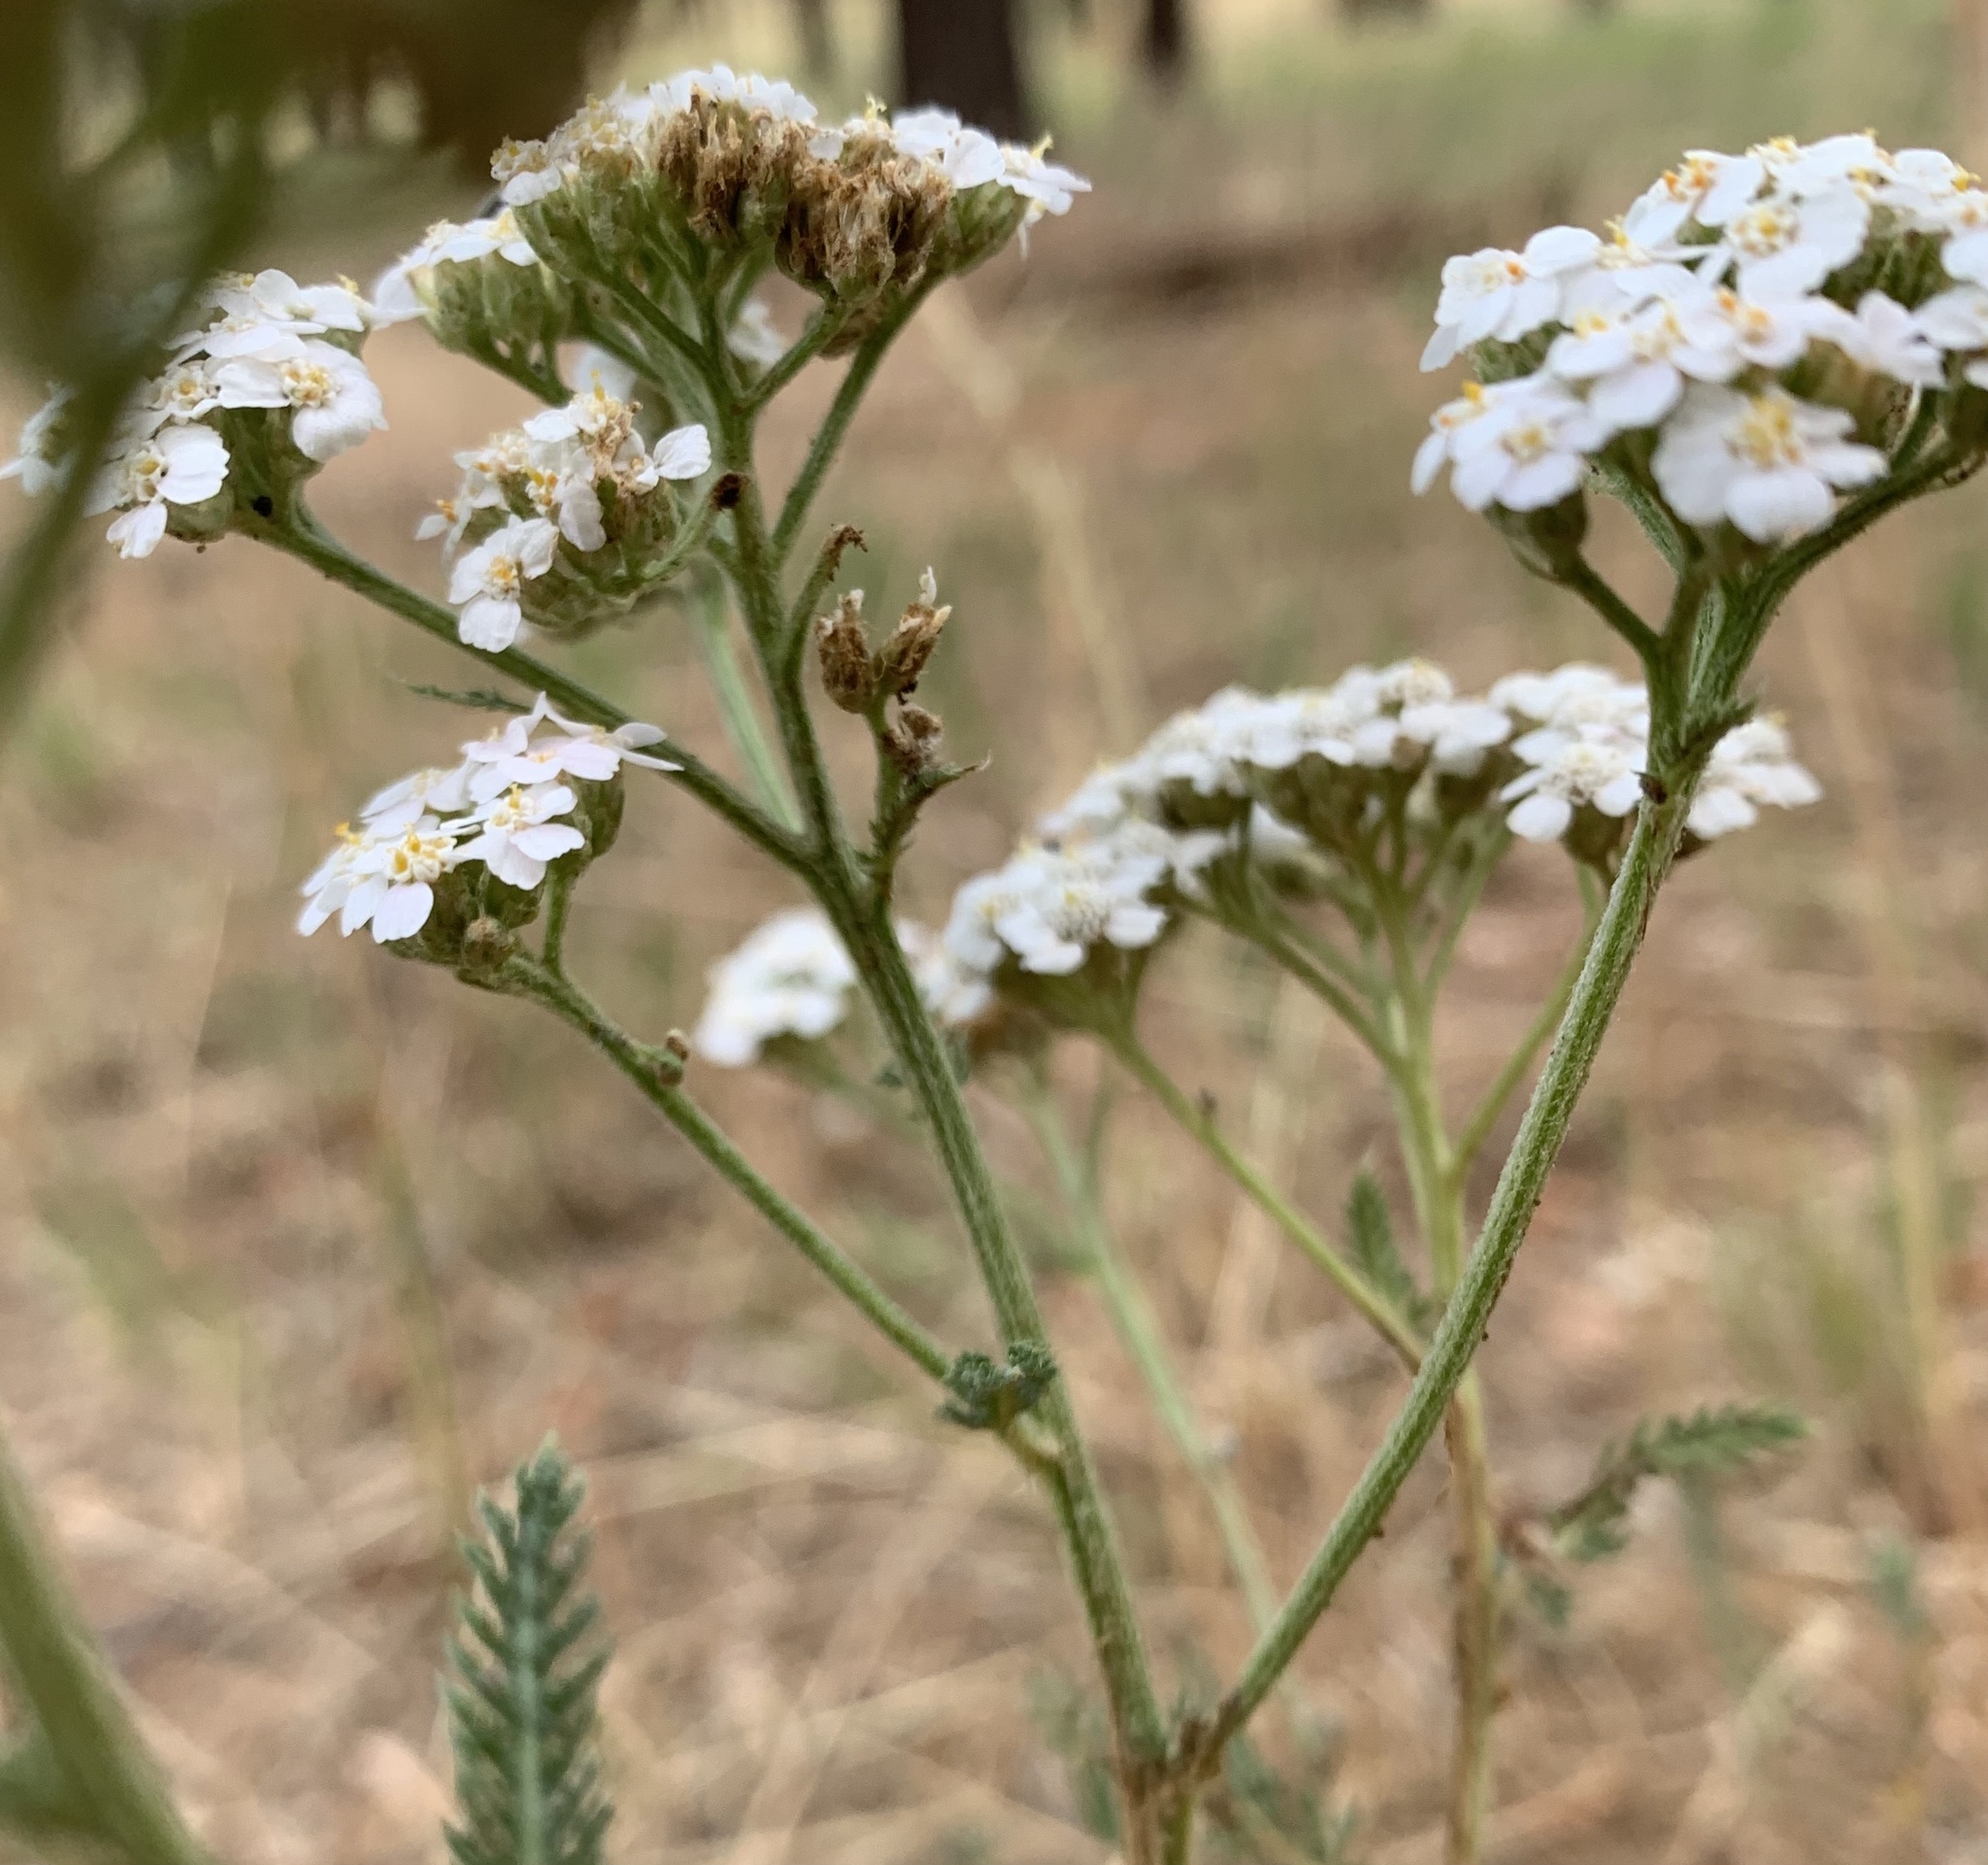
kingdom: Plantae
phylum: Tracheophyta
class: Magnoliopsida
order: Asterales
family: Asteraceae
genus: Achillea
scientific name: Achillea millefolium
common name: Yarrow
